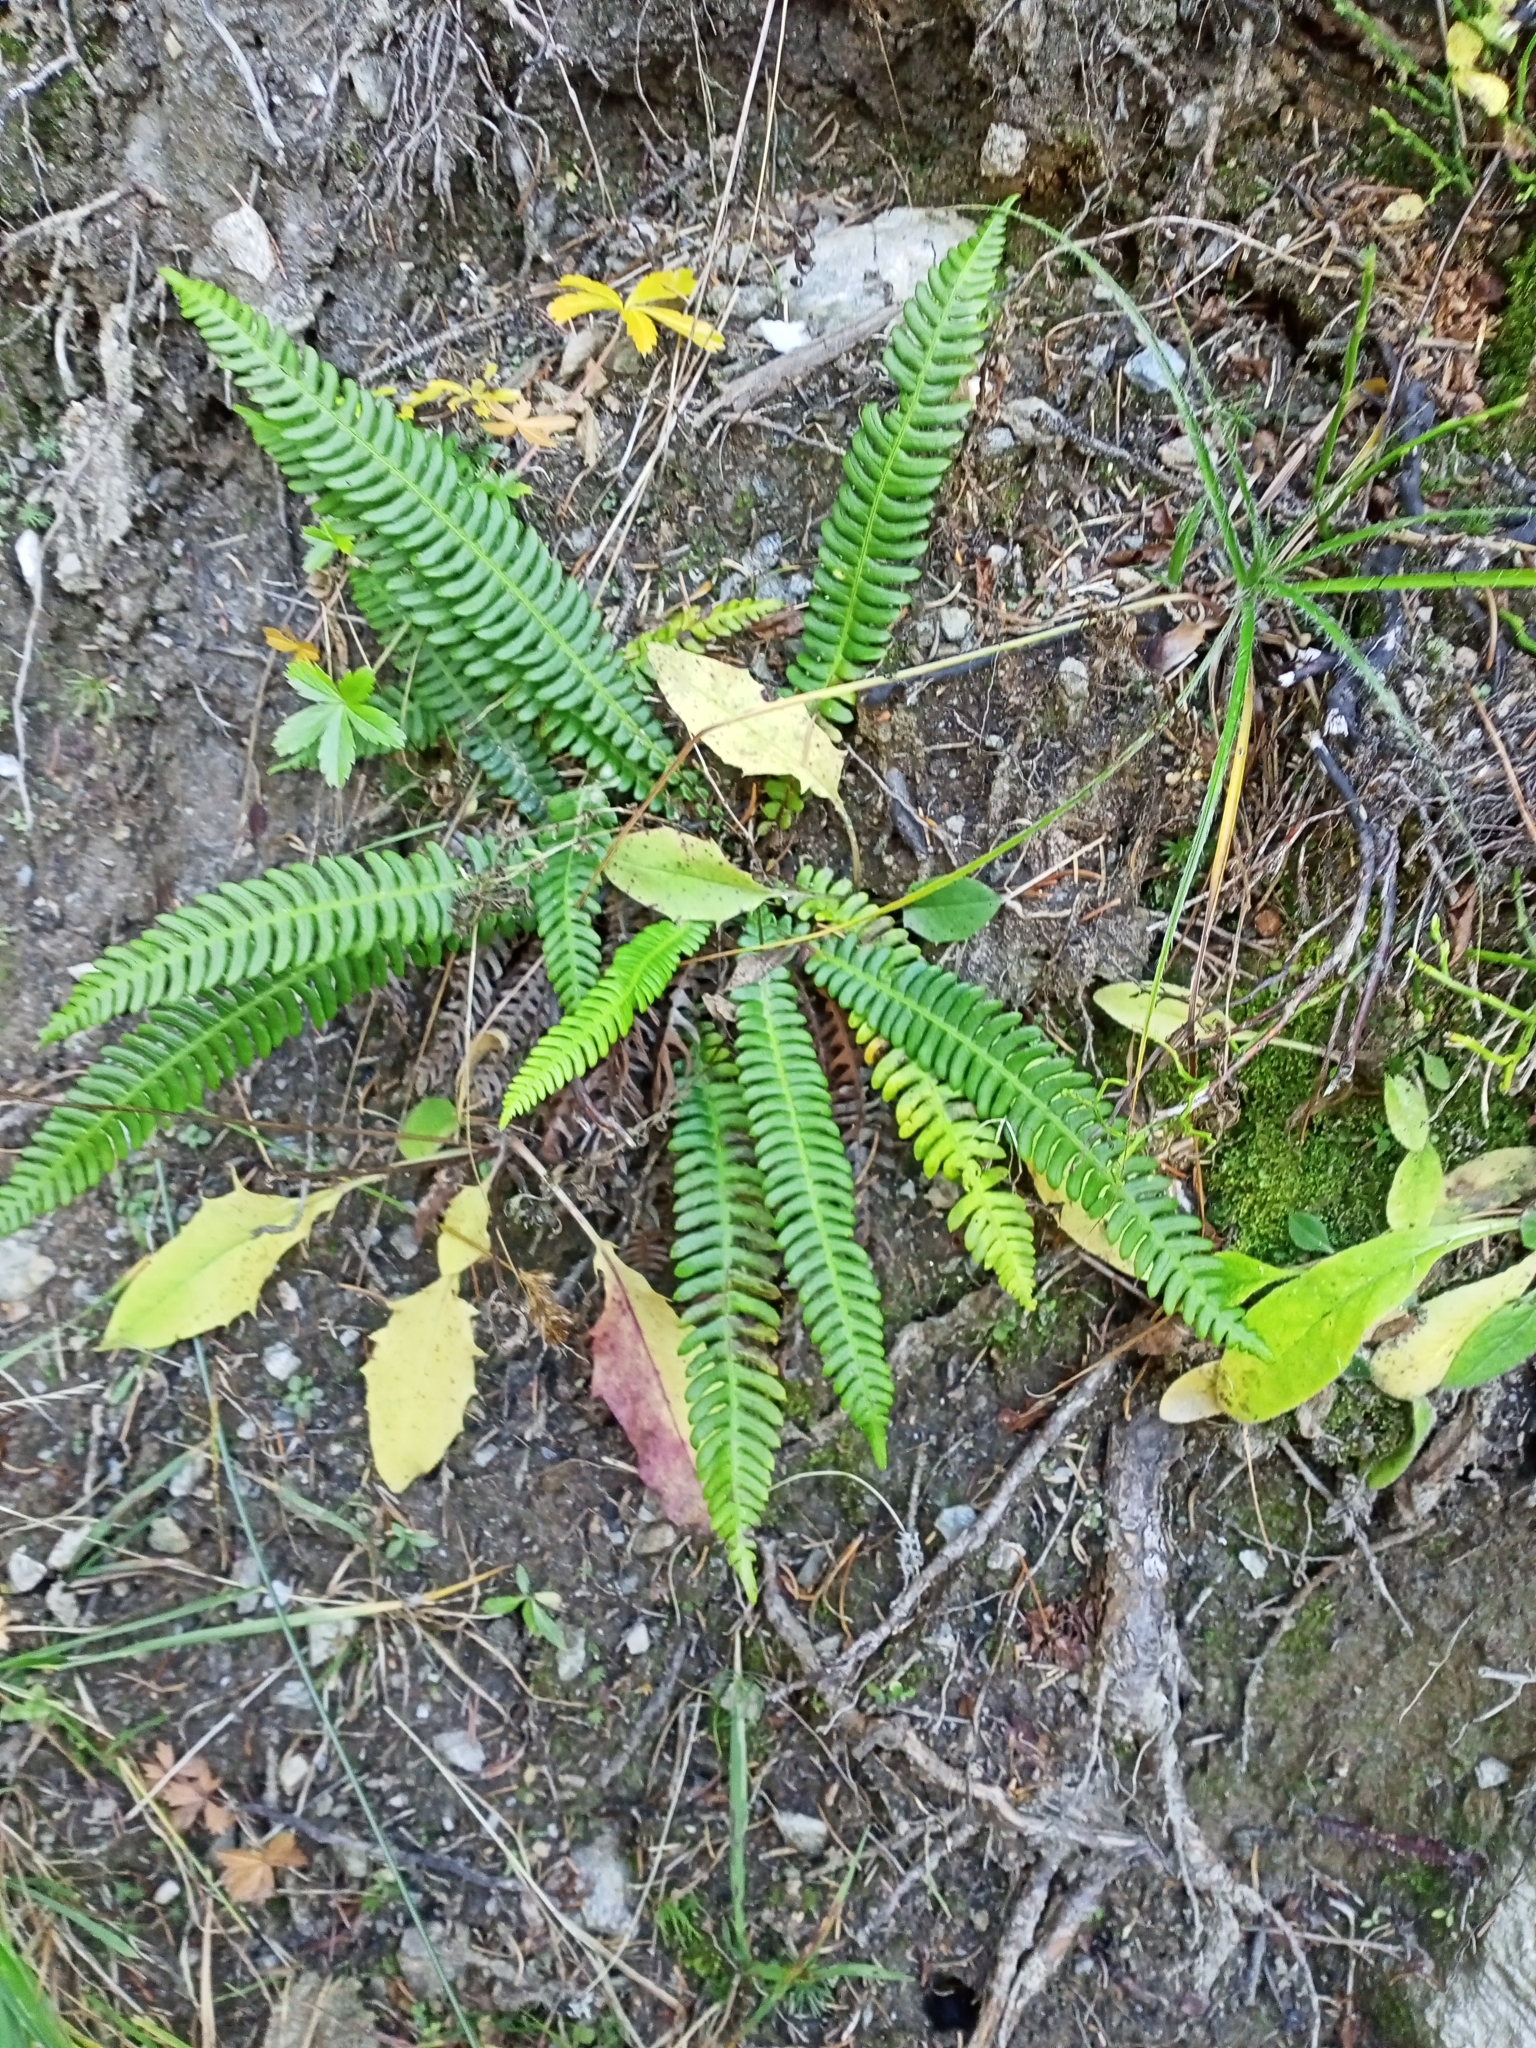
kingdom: Plantae
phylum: Tracheophyta
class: Polypodiopsida
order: Polypodiales
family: Blechnaceae
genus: Struthiopteris
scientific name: Struthiopteris spicant
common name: Deer fern
